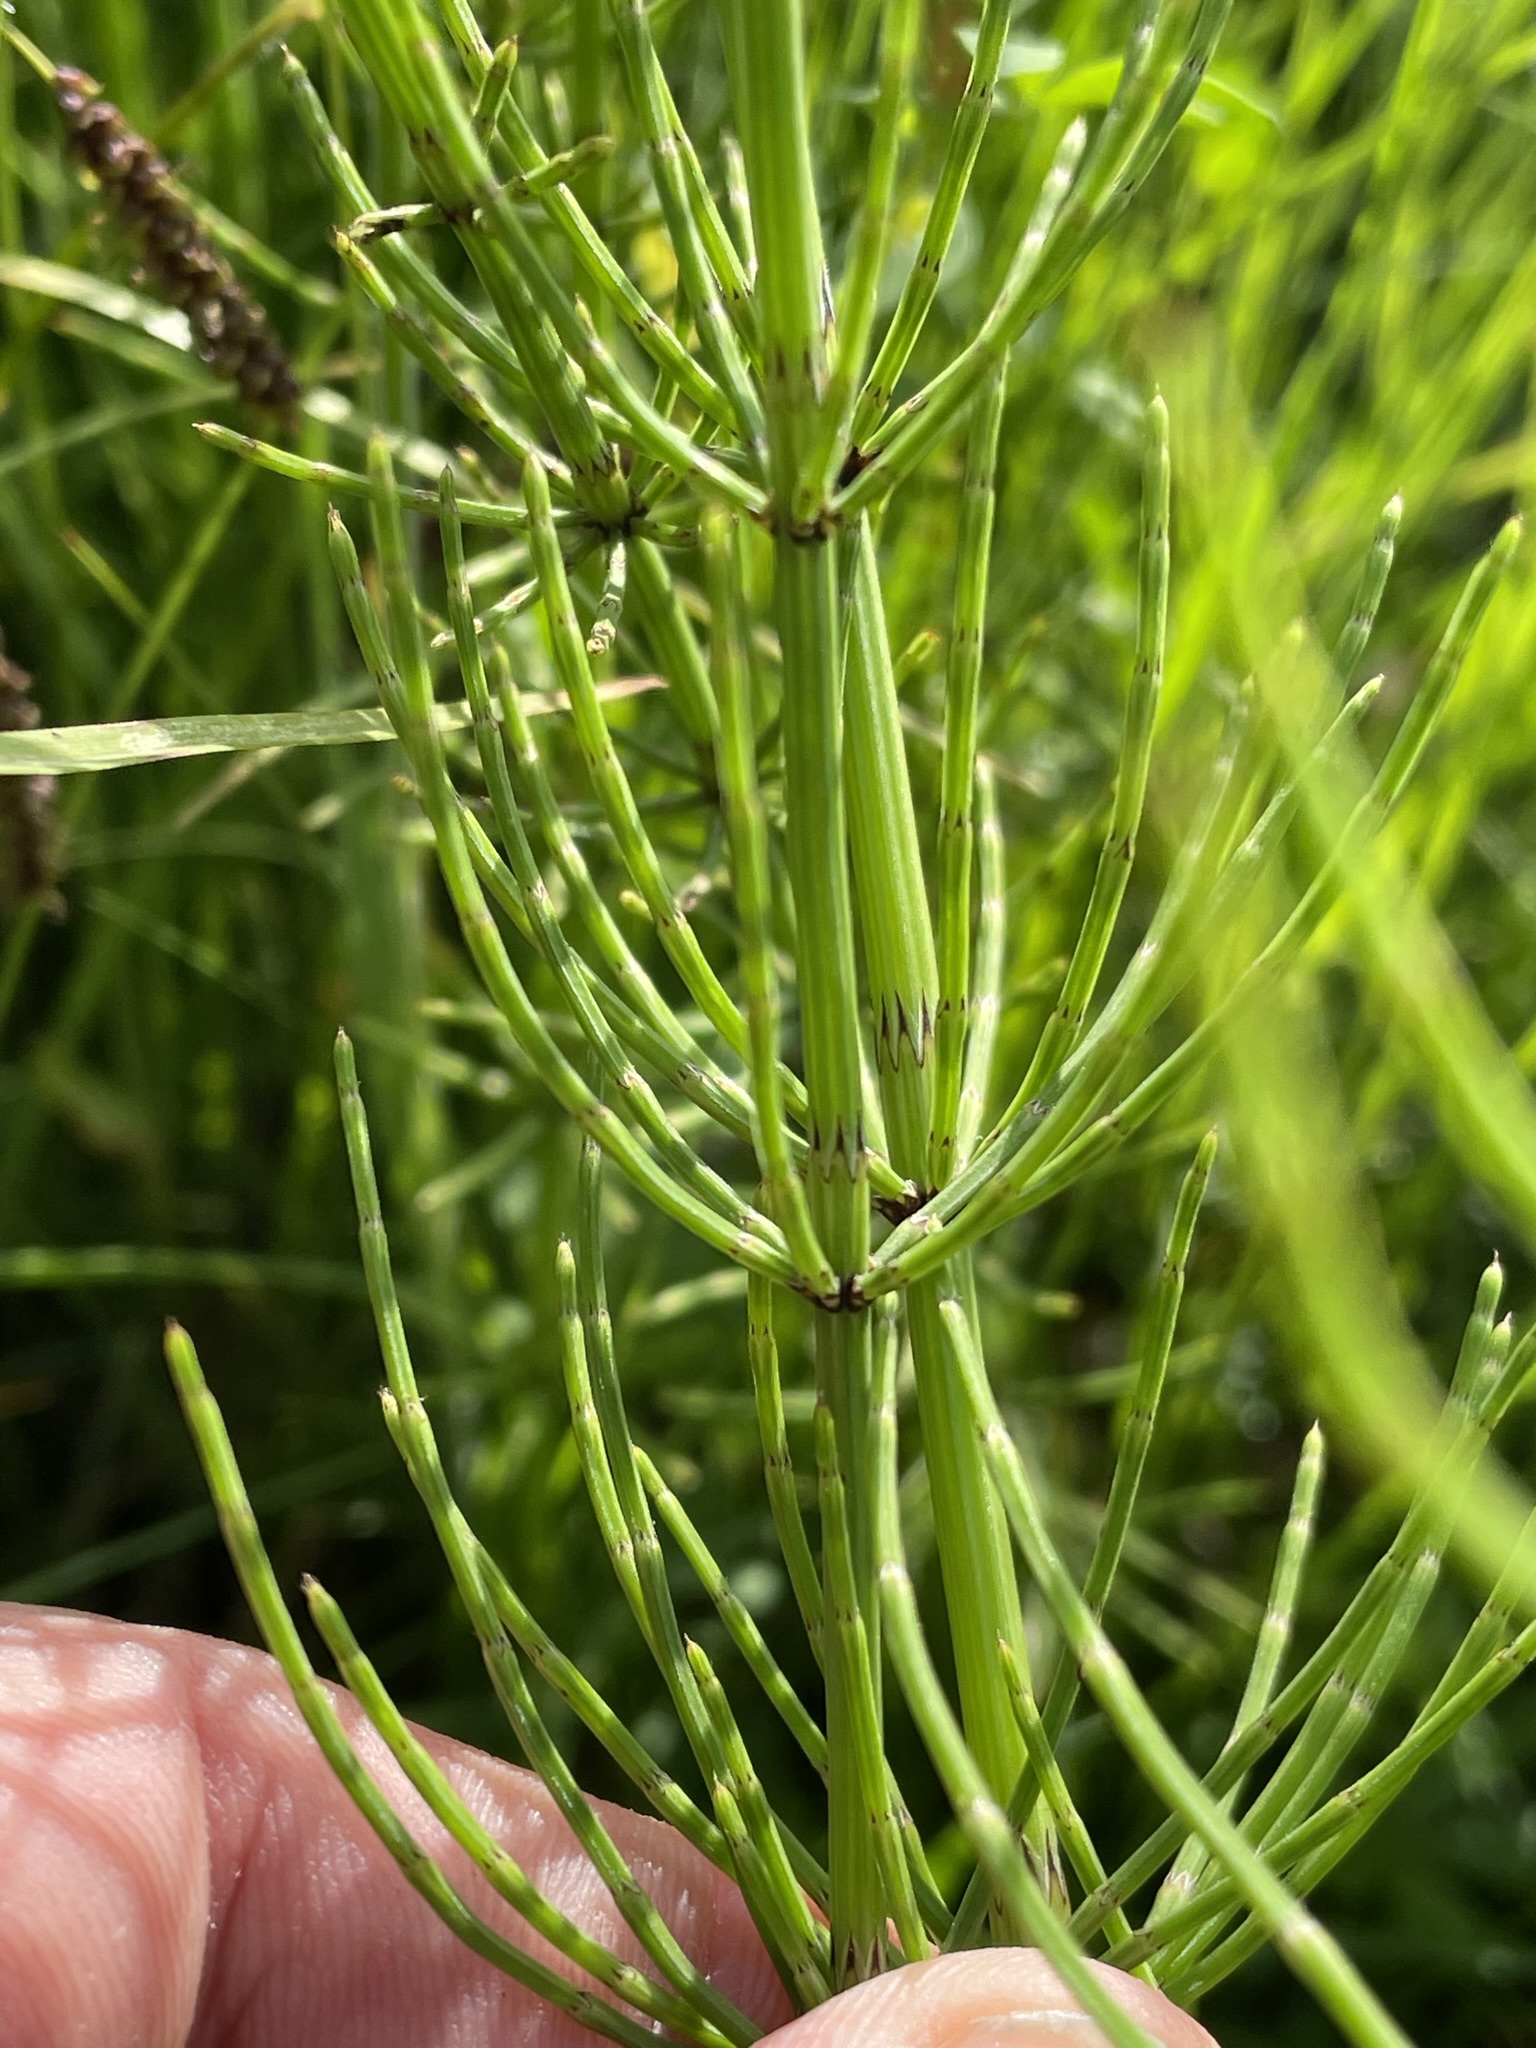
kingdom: Plantae
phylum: Tracheophyta
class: Polypodiopsida
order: Equisetales
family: Equisetaceae
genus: Equisetum
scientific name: Equisetum palustre
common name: Marsh horsetail
